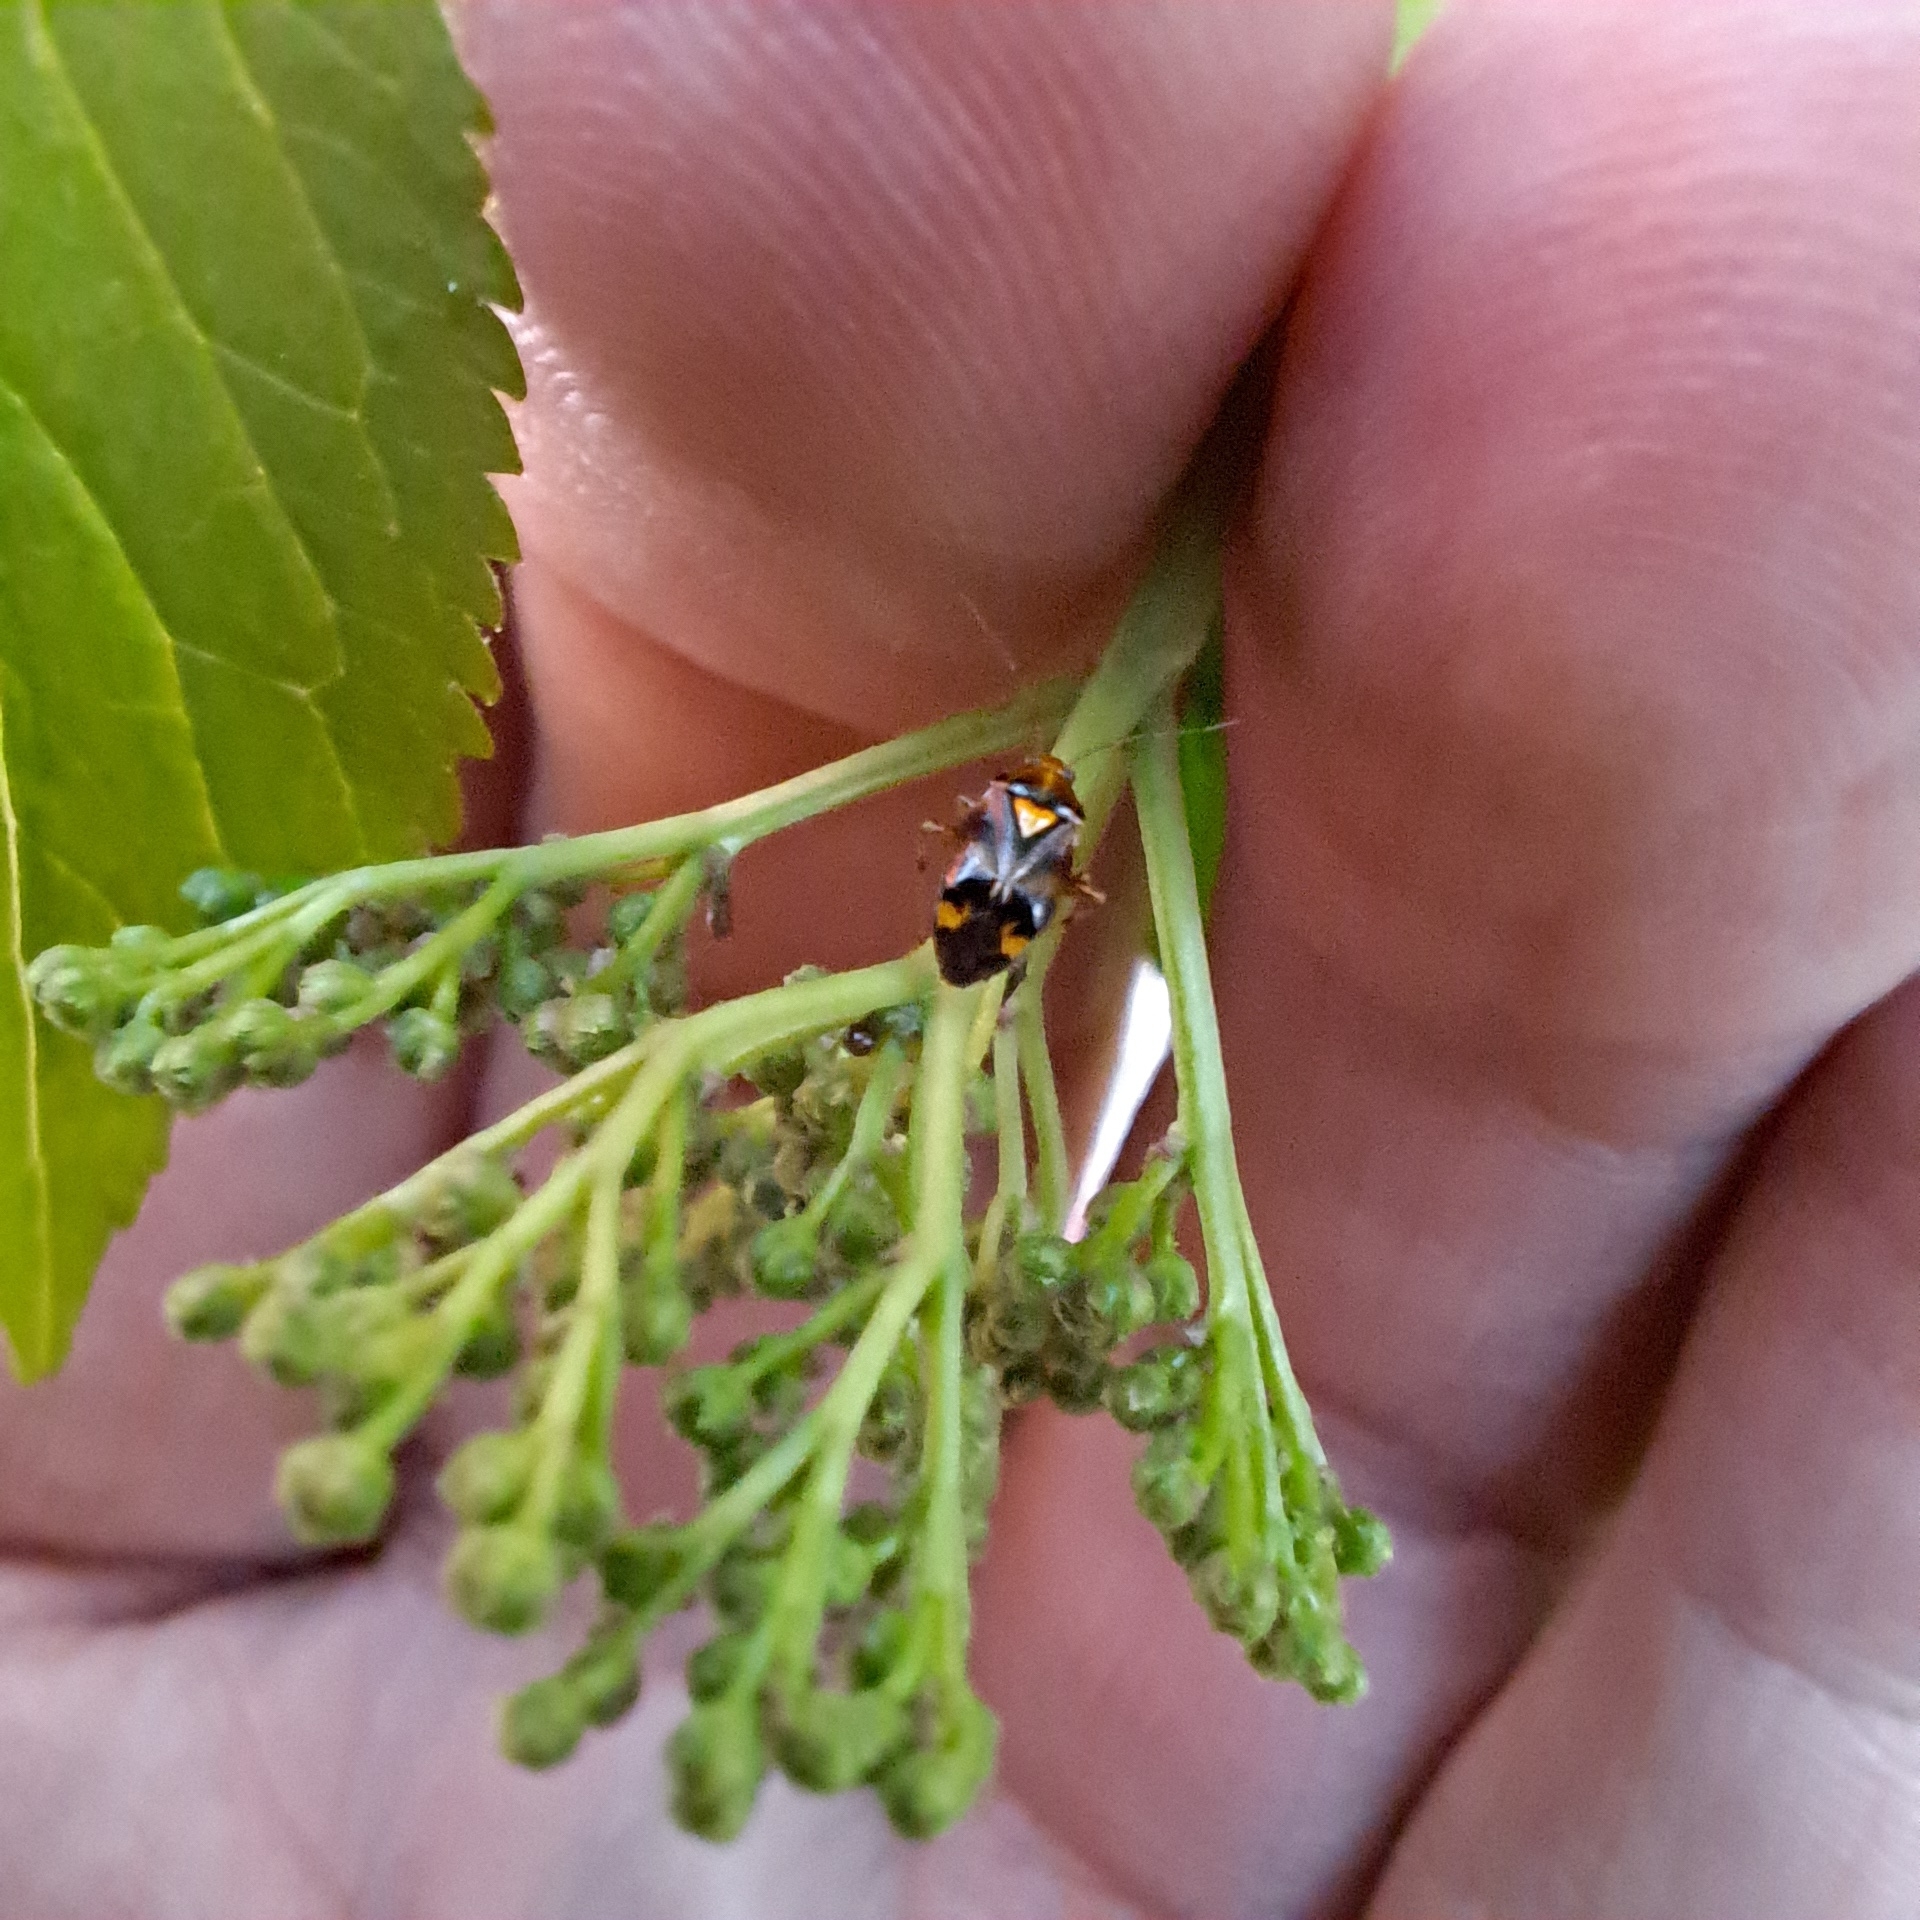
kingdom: Animalia
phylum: Arthropoda
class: Insecta
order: Hemiptera
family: Miridae
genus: Liocoris
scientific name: Liocoris tripustulatus
